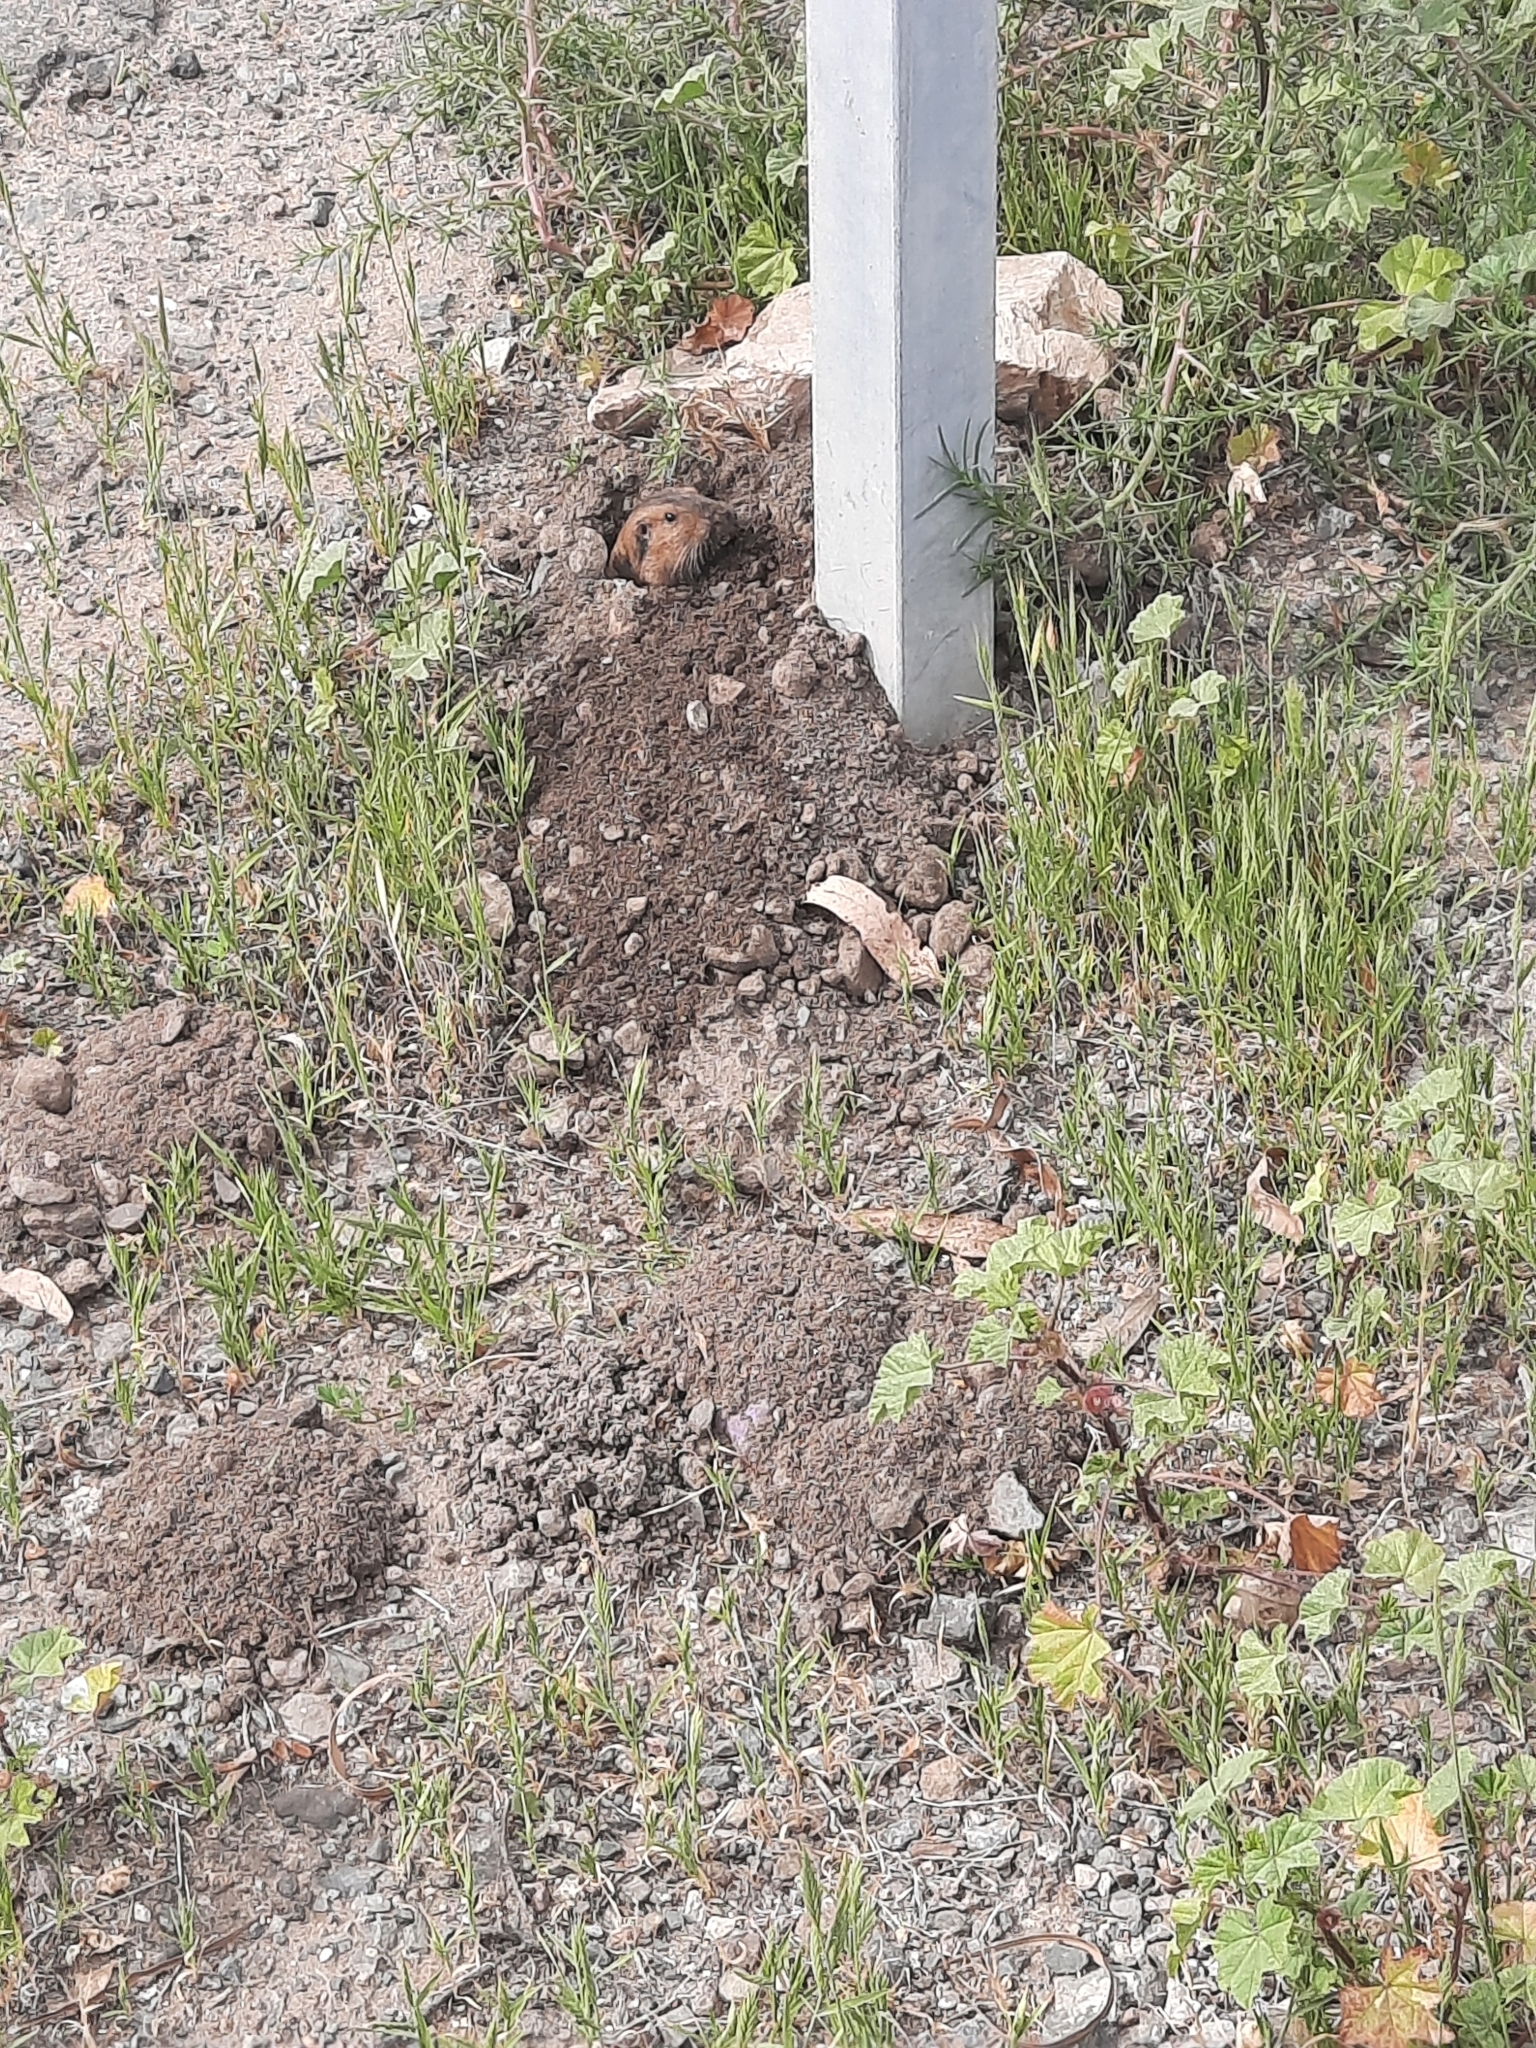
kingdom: Animalia
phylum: Chordata
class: Mammalia
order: Rodentia
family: Geomyidae
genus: Thomomys
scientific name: Thomomys bottae
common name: Botta's pocket gopher
